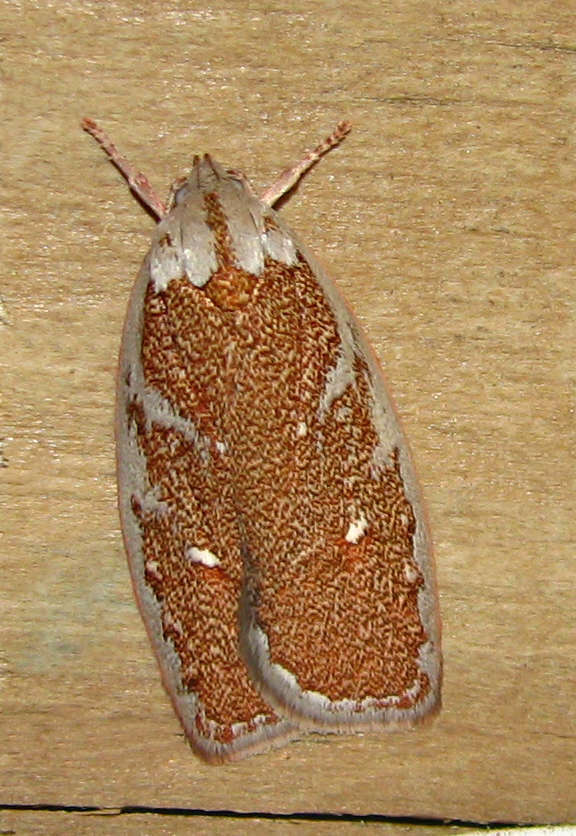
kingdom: Animalia
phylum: Arthropoda
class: Insecta
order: Lepidoptera
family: Oecophoridae
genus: Euchaetis
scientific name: Euchaetis rhizobola
